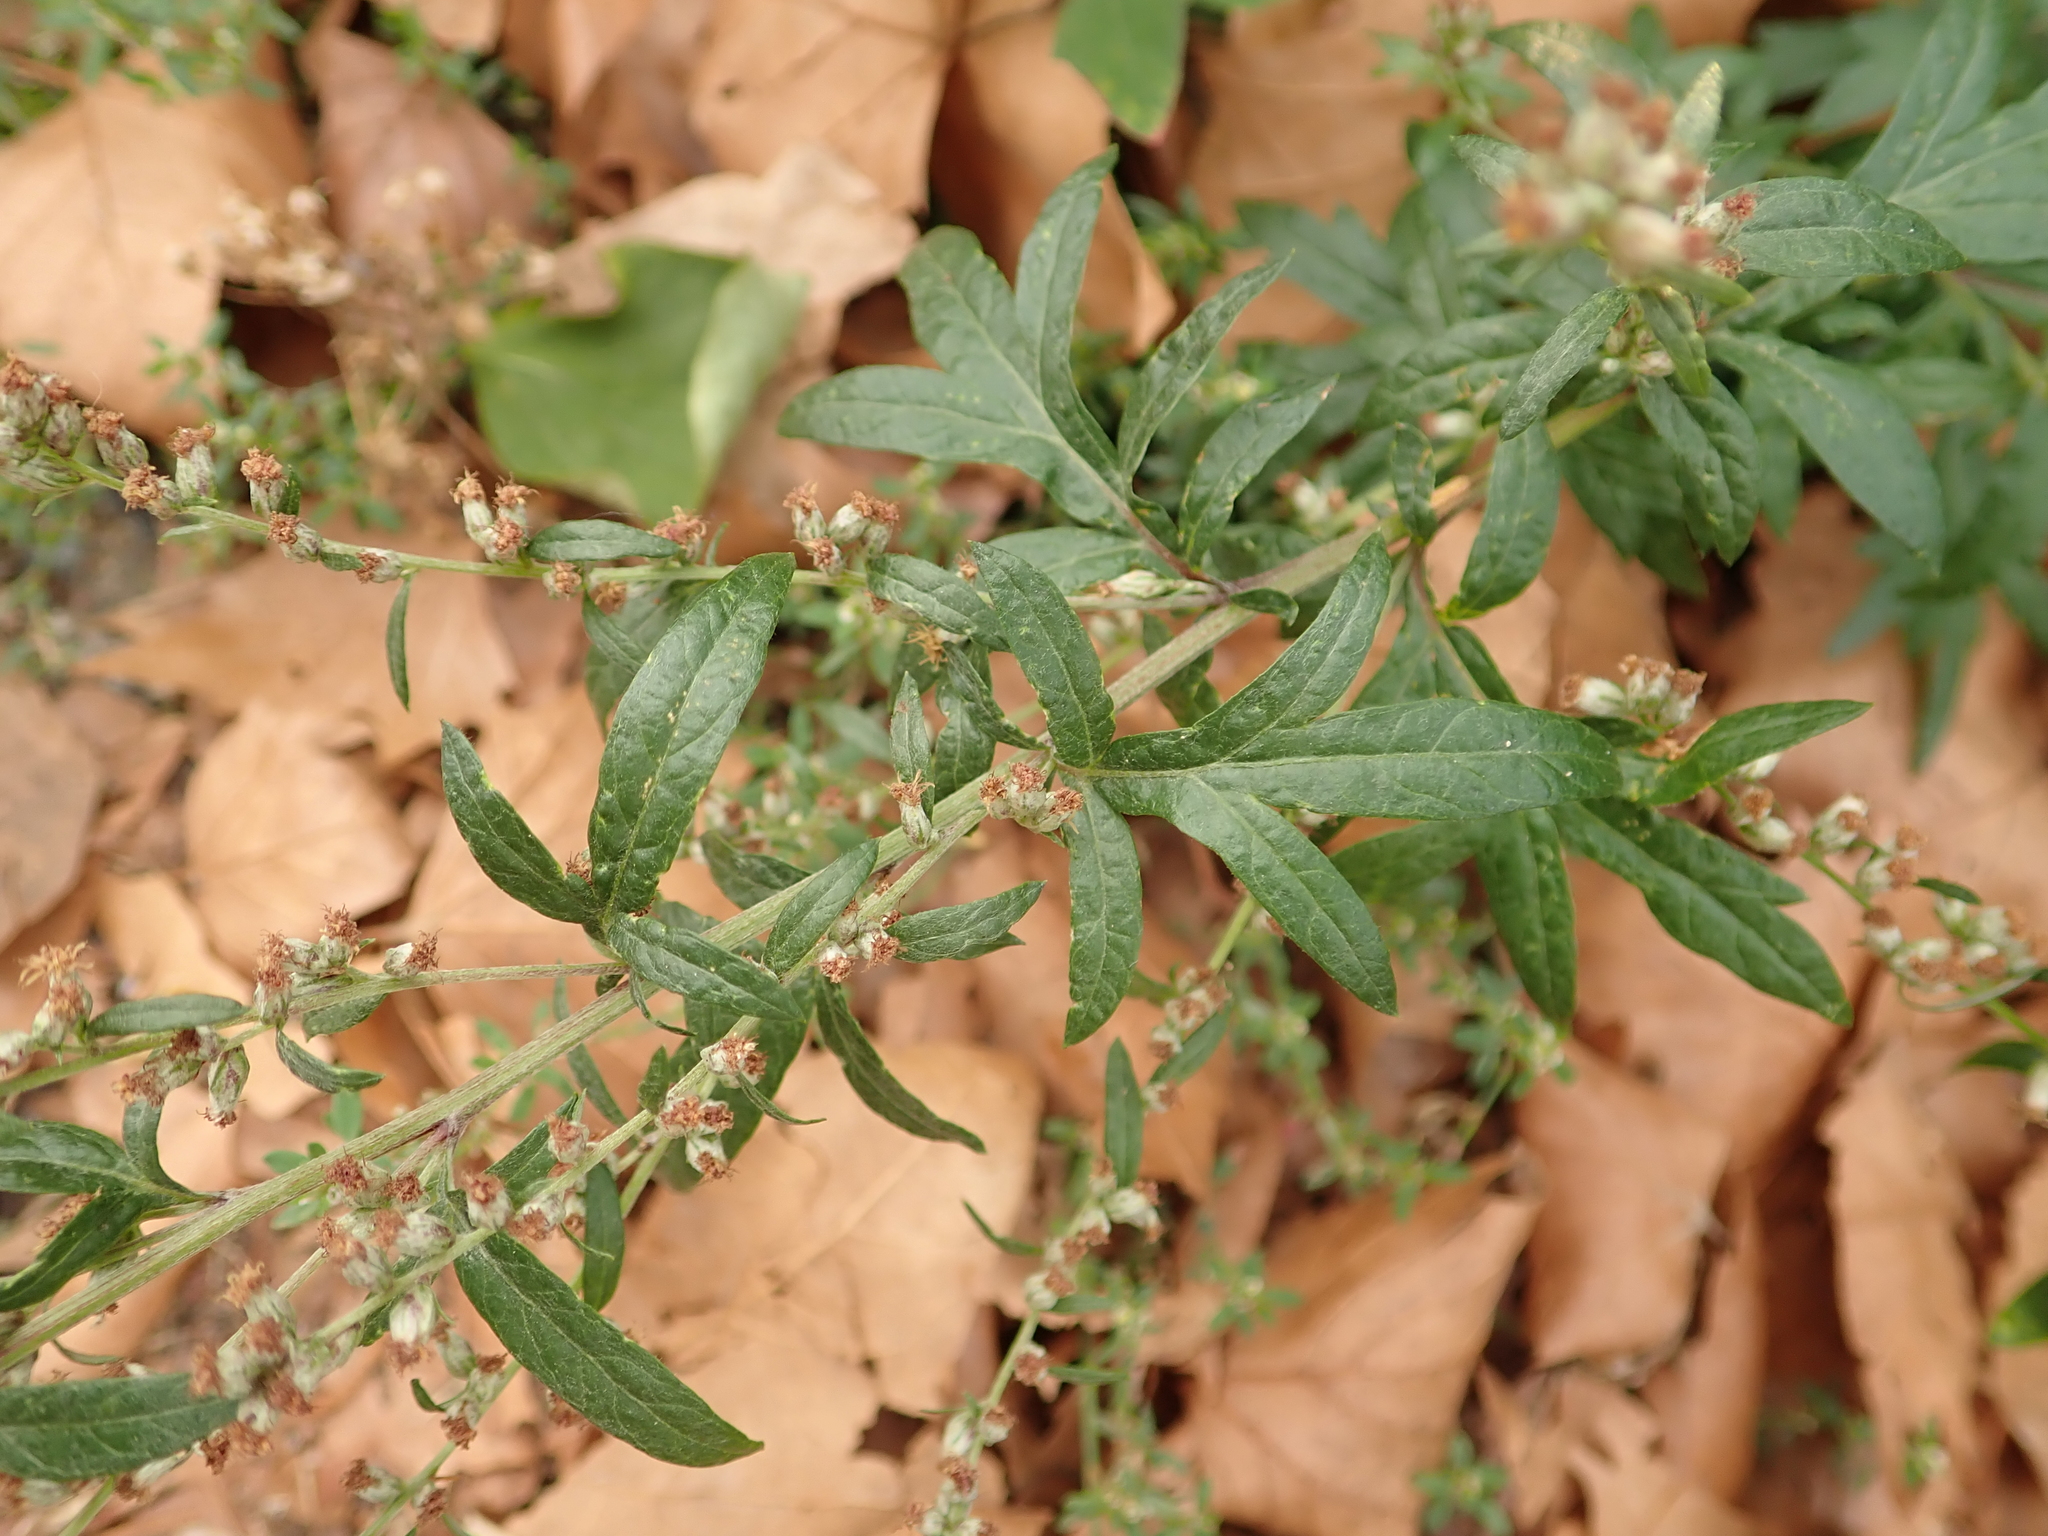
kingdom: Plantae
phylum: Tracheophyta
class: Magnoliopsida
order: Asterales
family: Asteraceae
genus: Artemisia
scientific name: Artemisia vulgaris
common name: Mugwort
